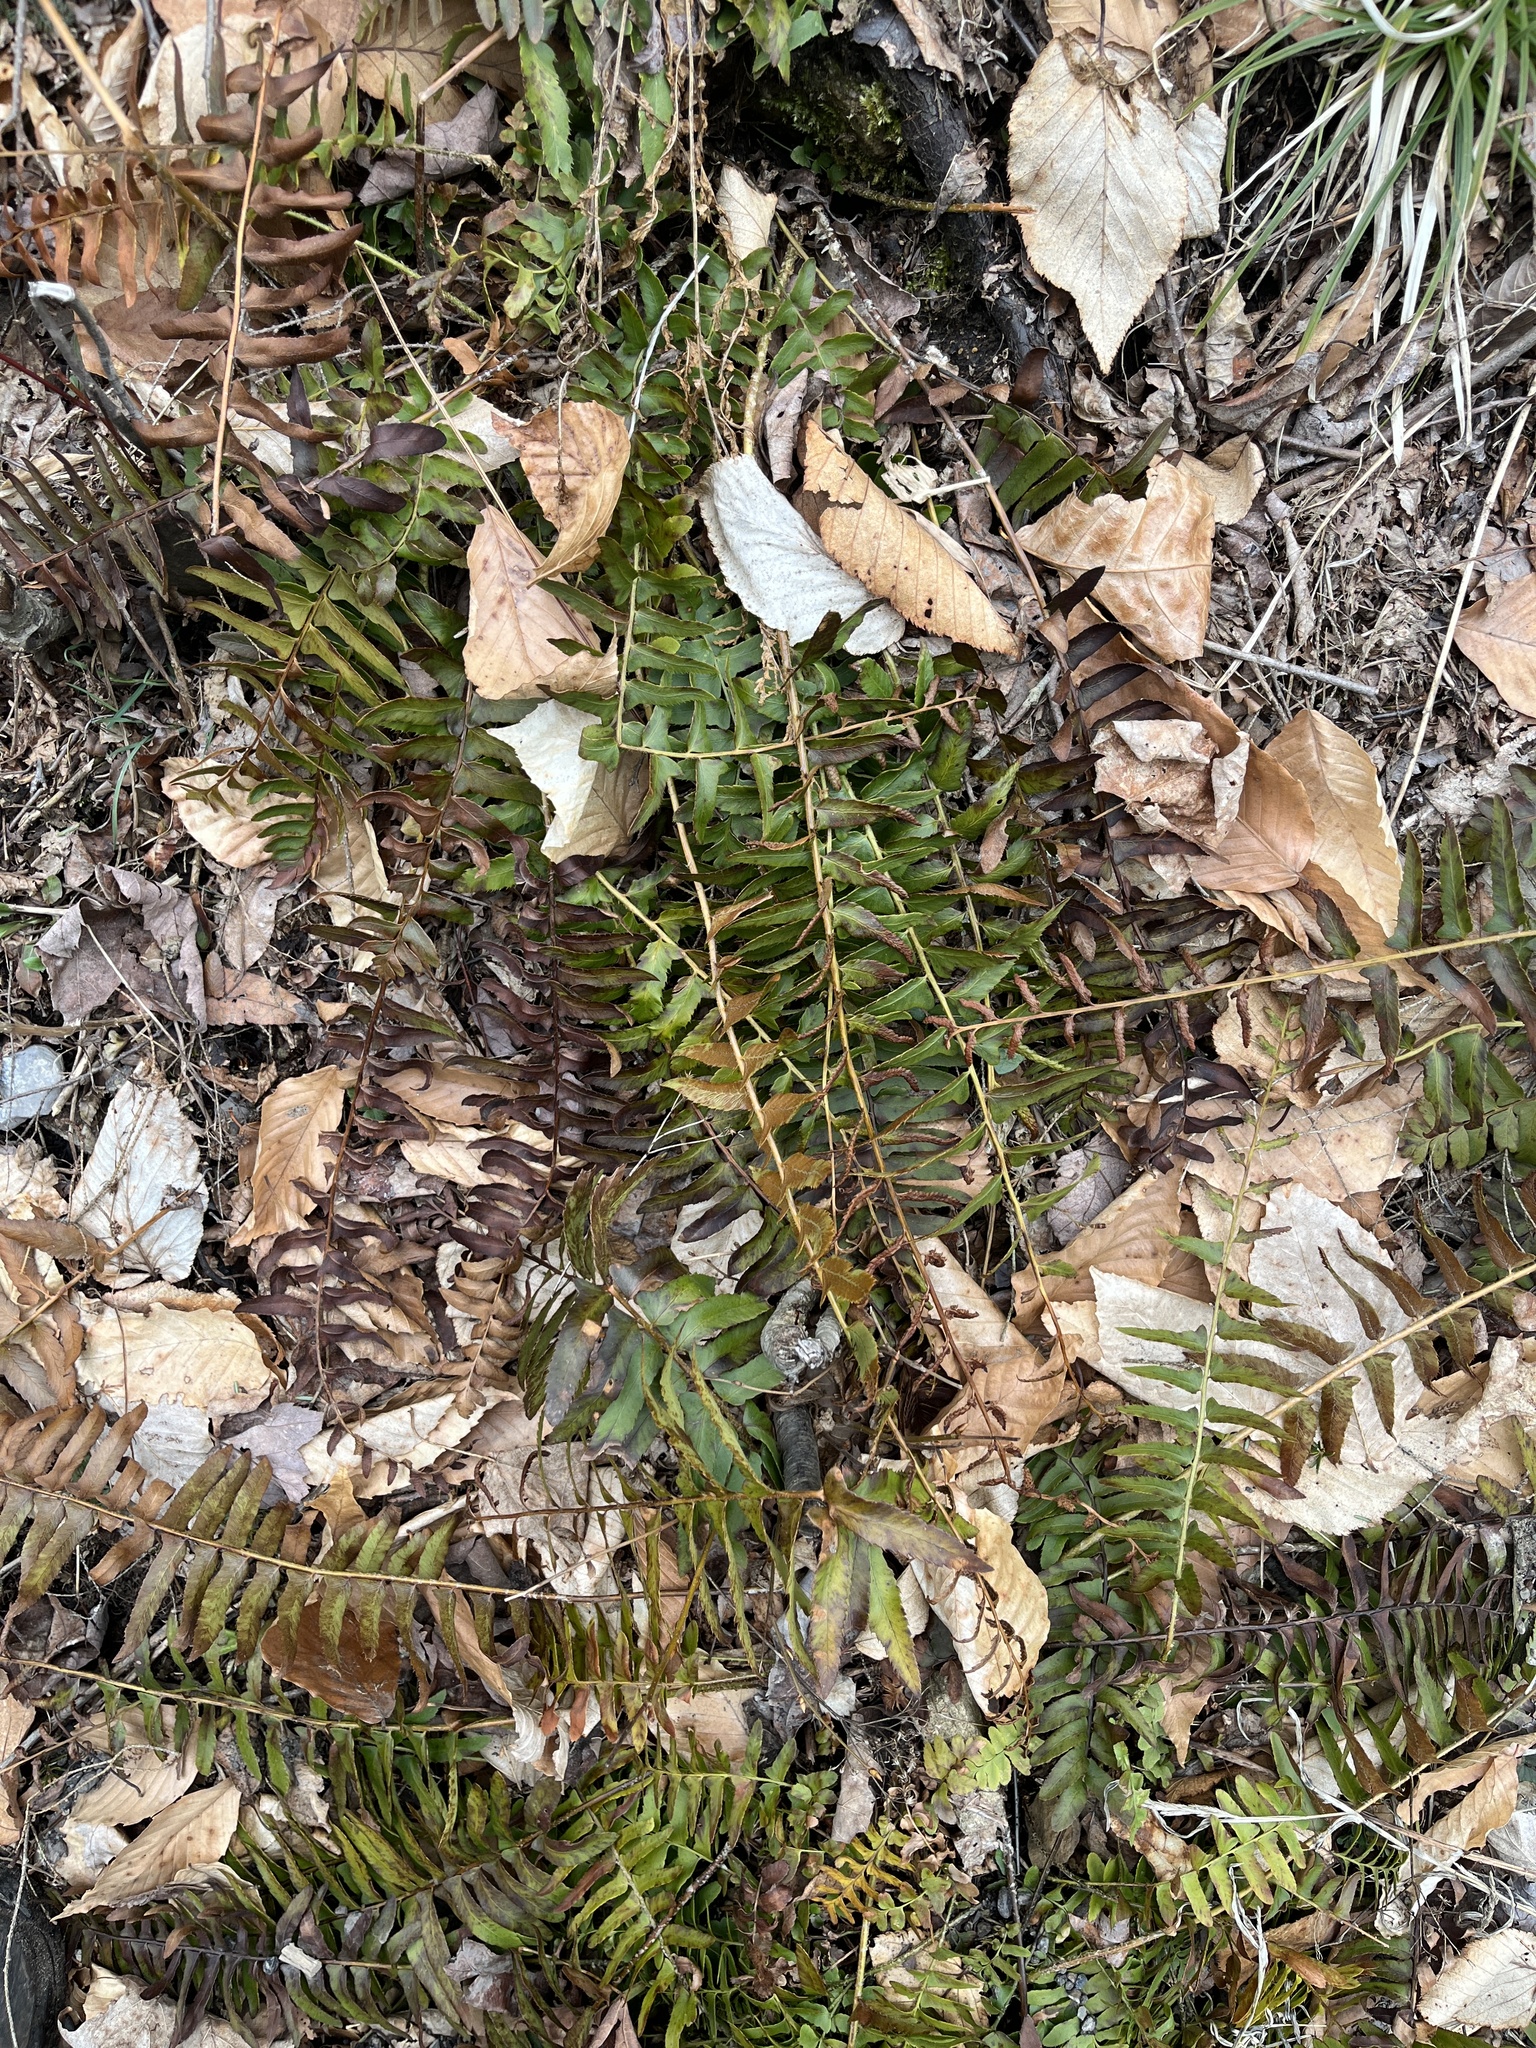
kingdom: Plantae
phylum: Tracheophyta
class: Polypodiopsida
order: Polypodiales
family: Dryopteridaceae
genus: Polystichum
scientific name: Polystichum acrostichoides
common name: Christmas fern
